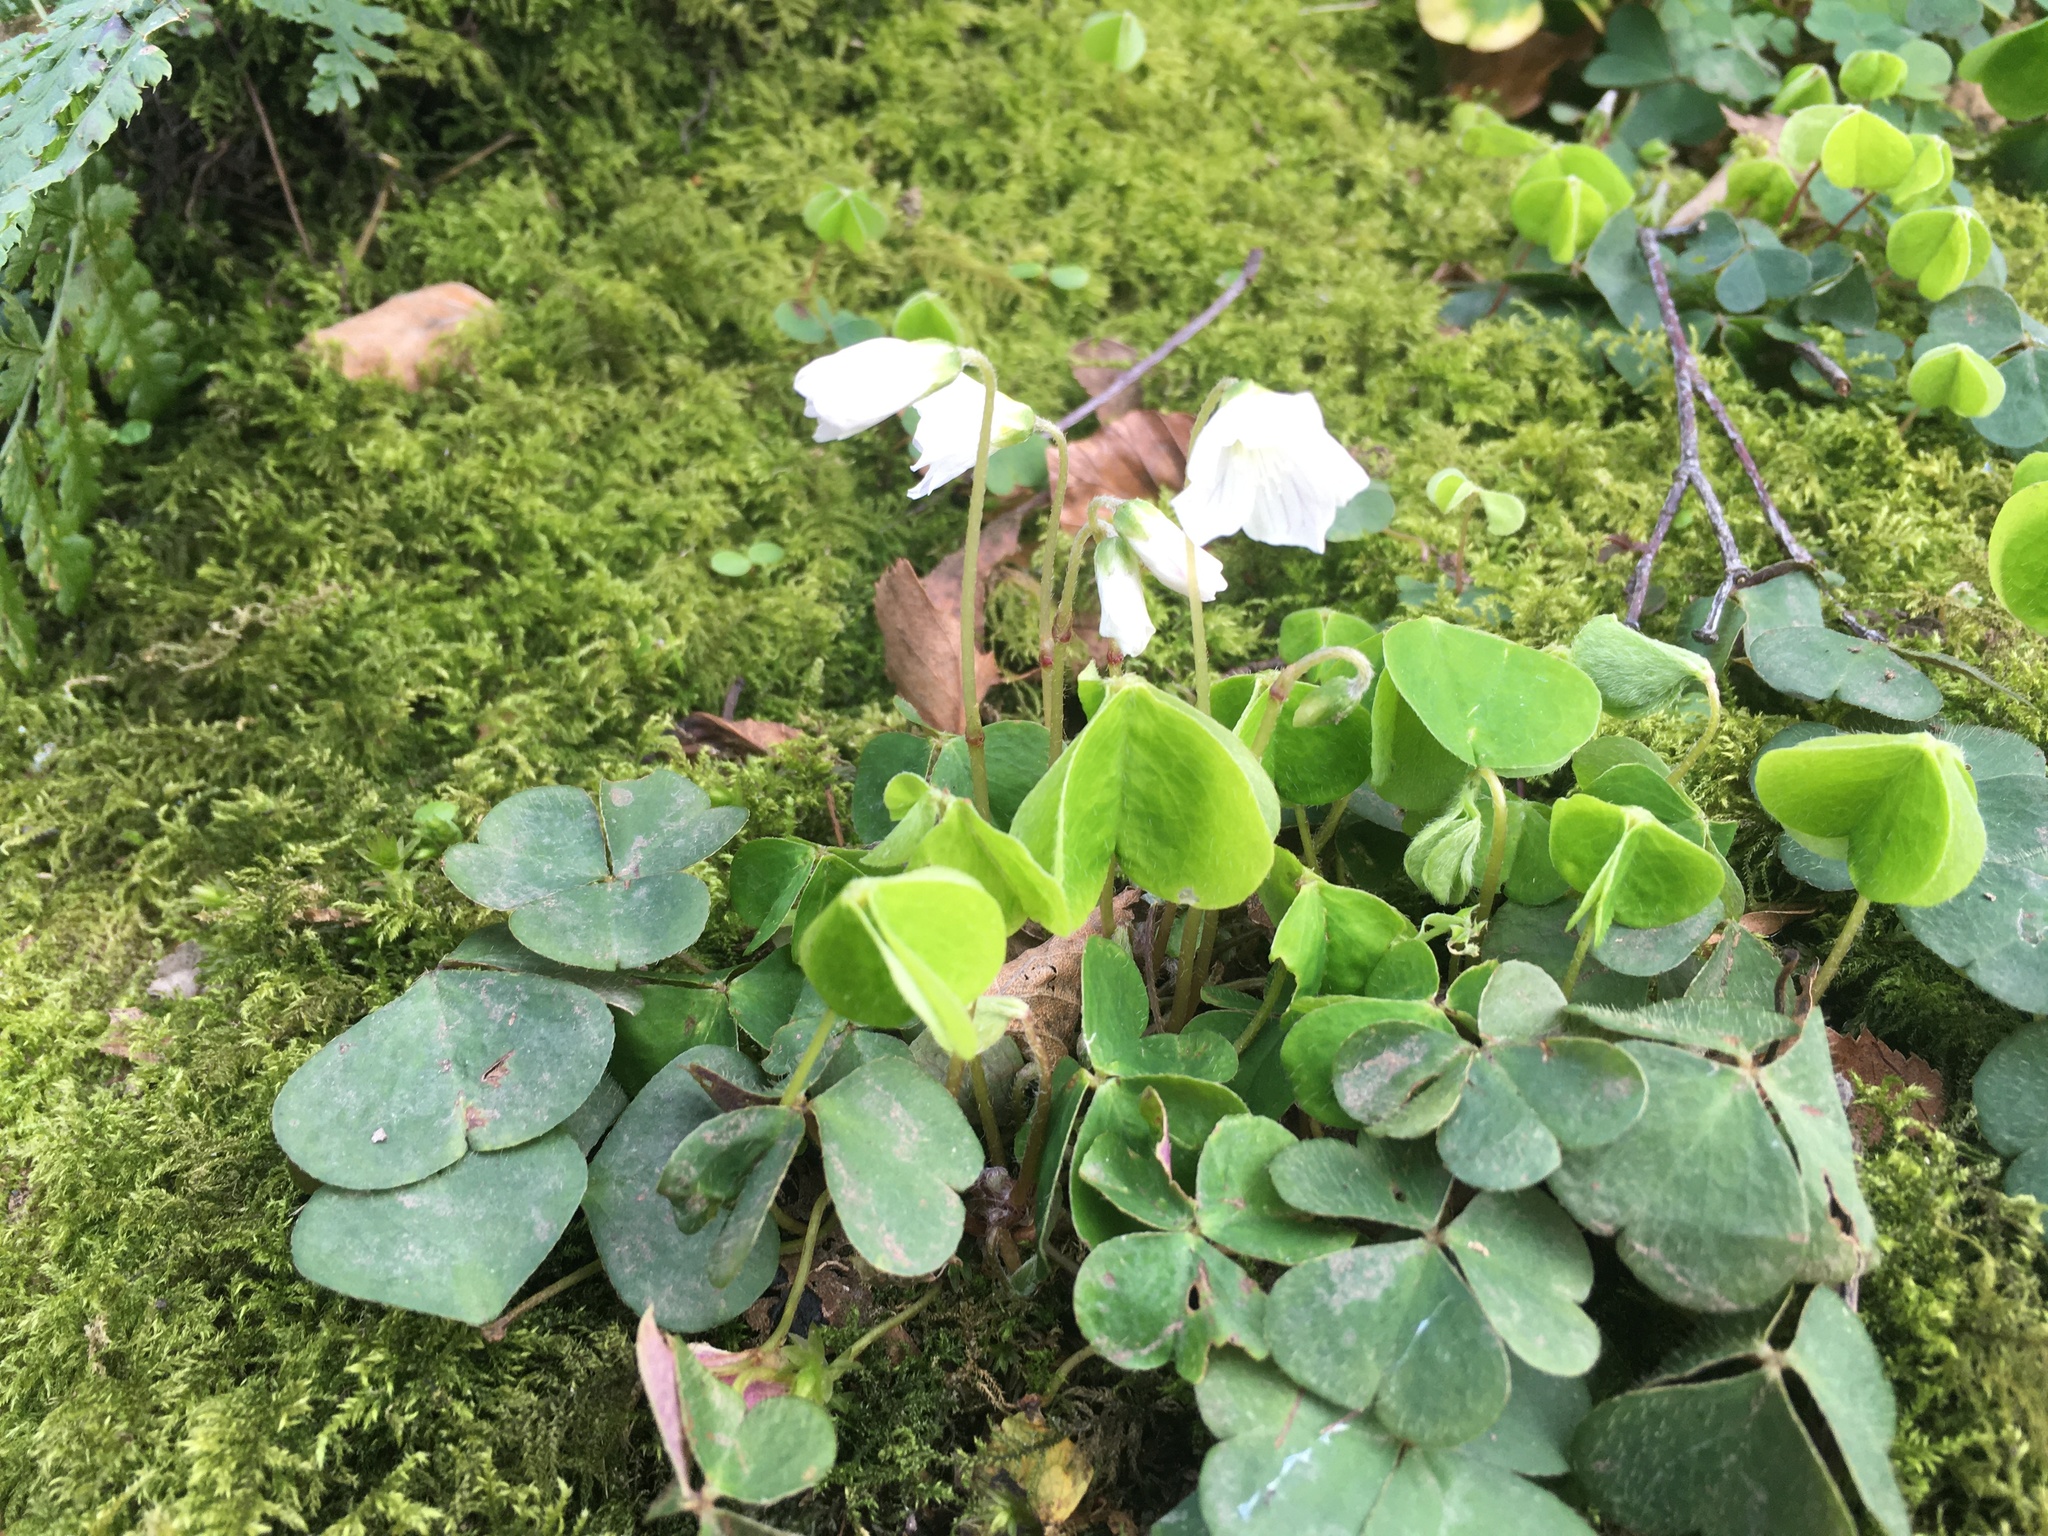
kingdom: Plantae
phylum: Tracheophyta
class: Magnoliopsida
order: Oxalidales
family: Oxalidaceae
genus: Oxalis
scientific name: Oxalis acetosella
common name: Wood-sorrel
